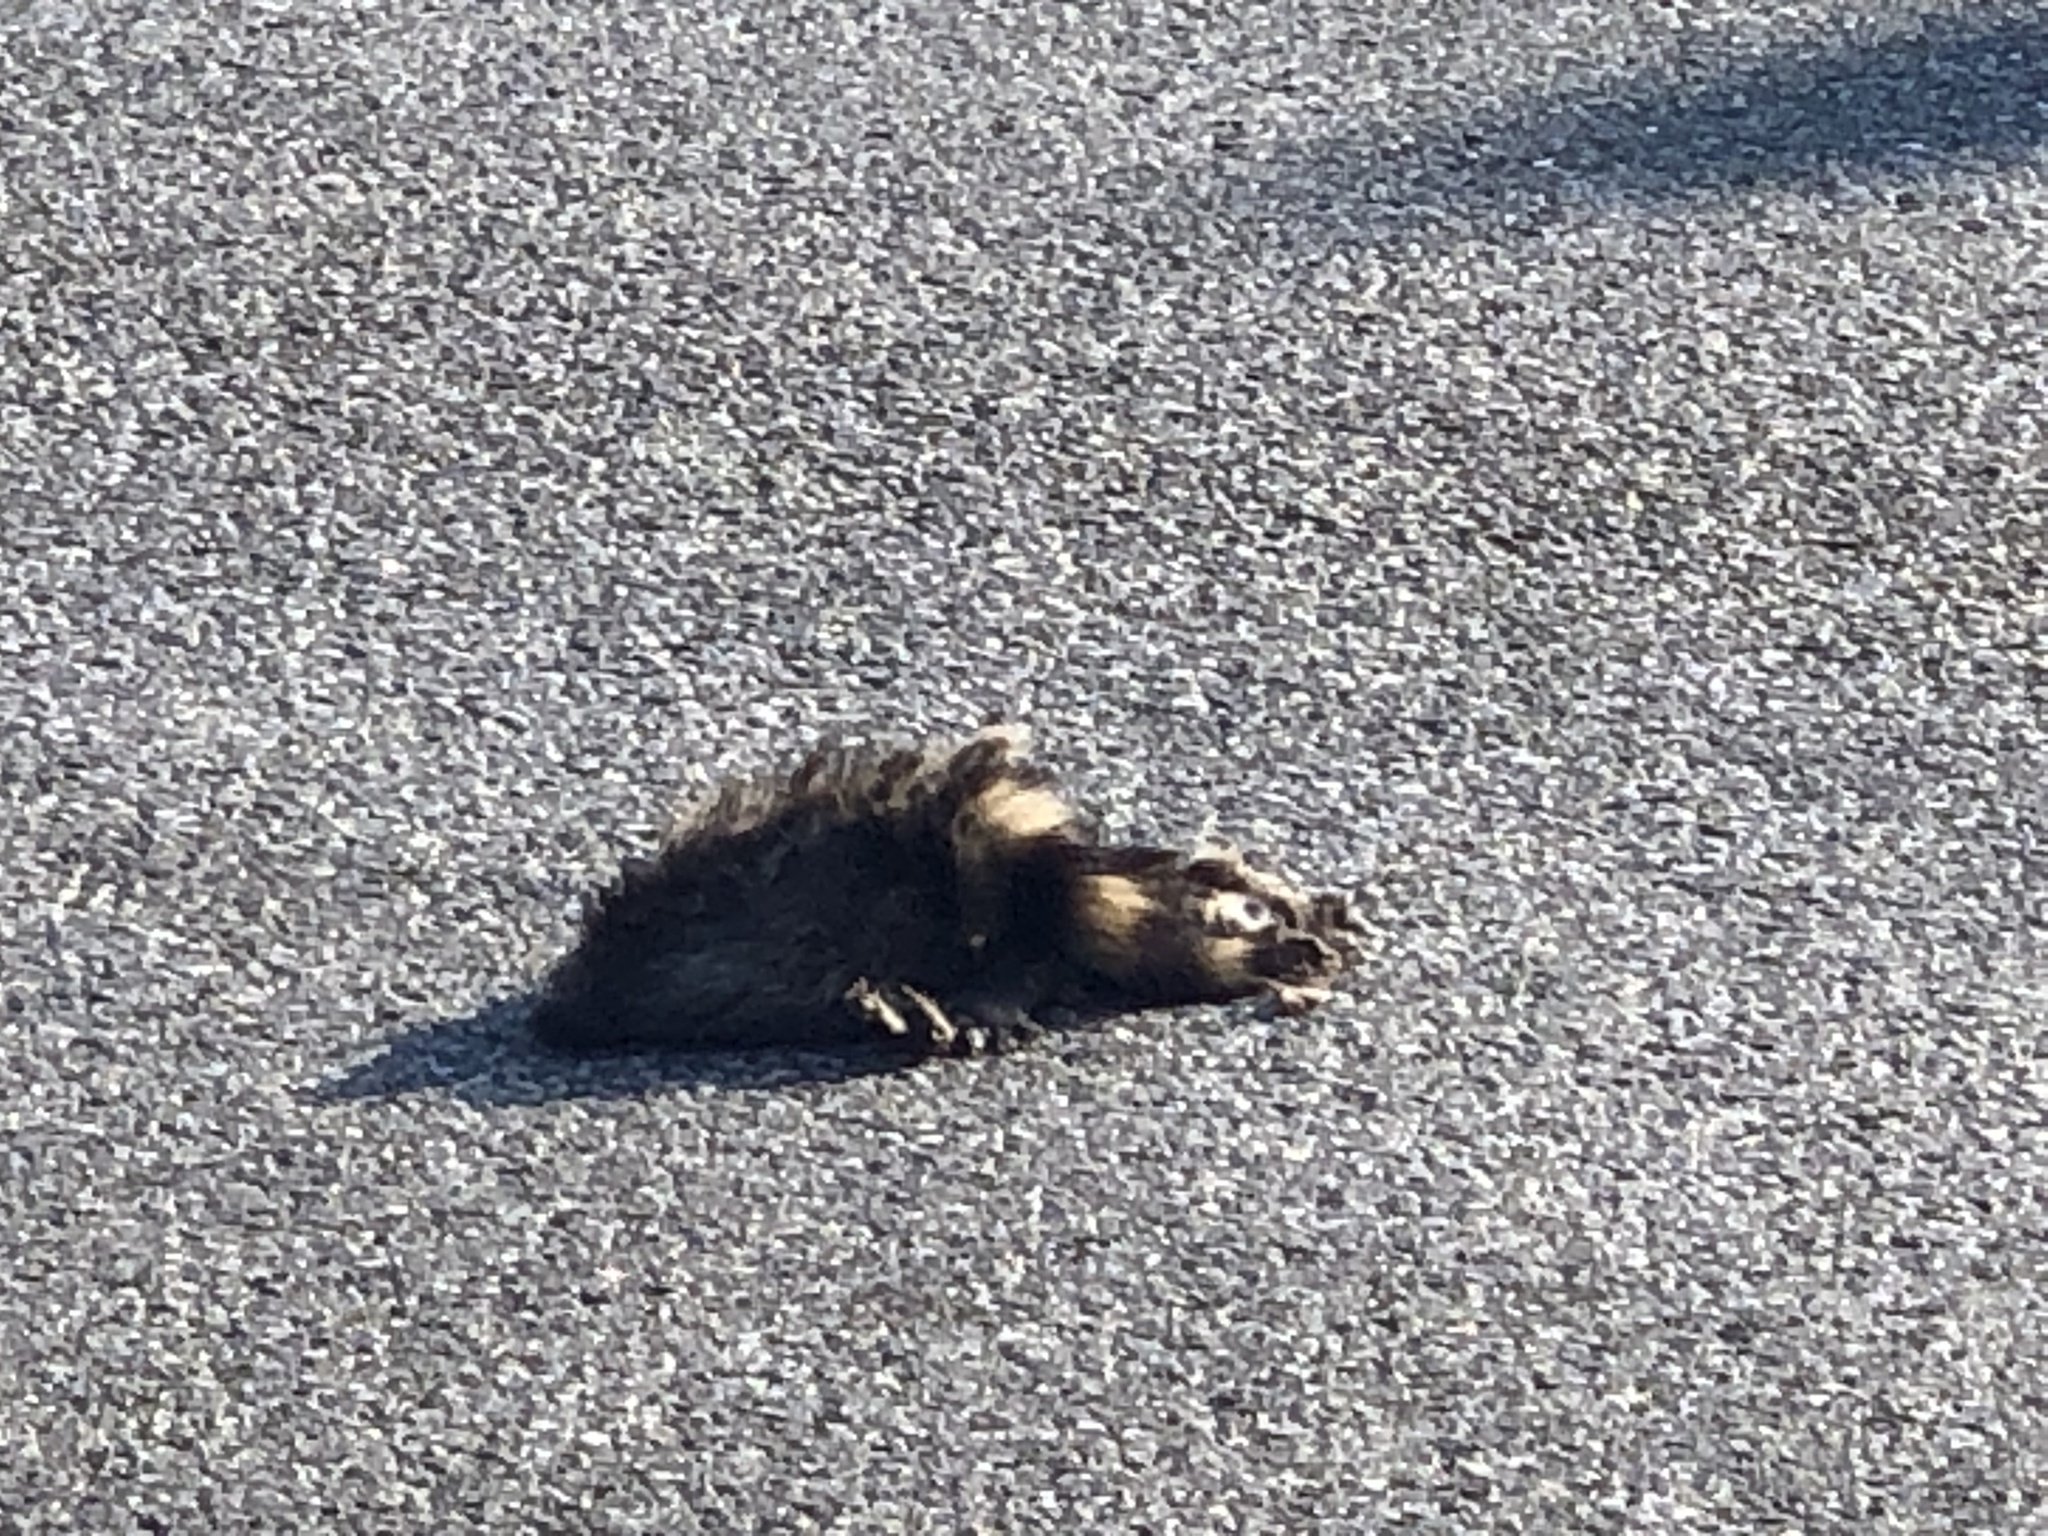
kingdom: Animalia
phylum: Chordata
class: Mammalia
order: Carnivora
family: Procyonidae
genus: Procyon
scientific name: Procyon lotor
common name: Raccoon
